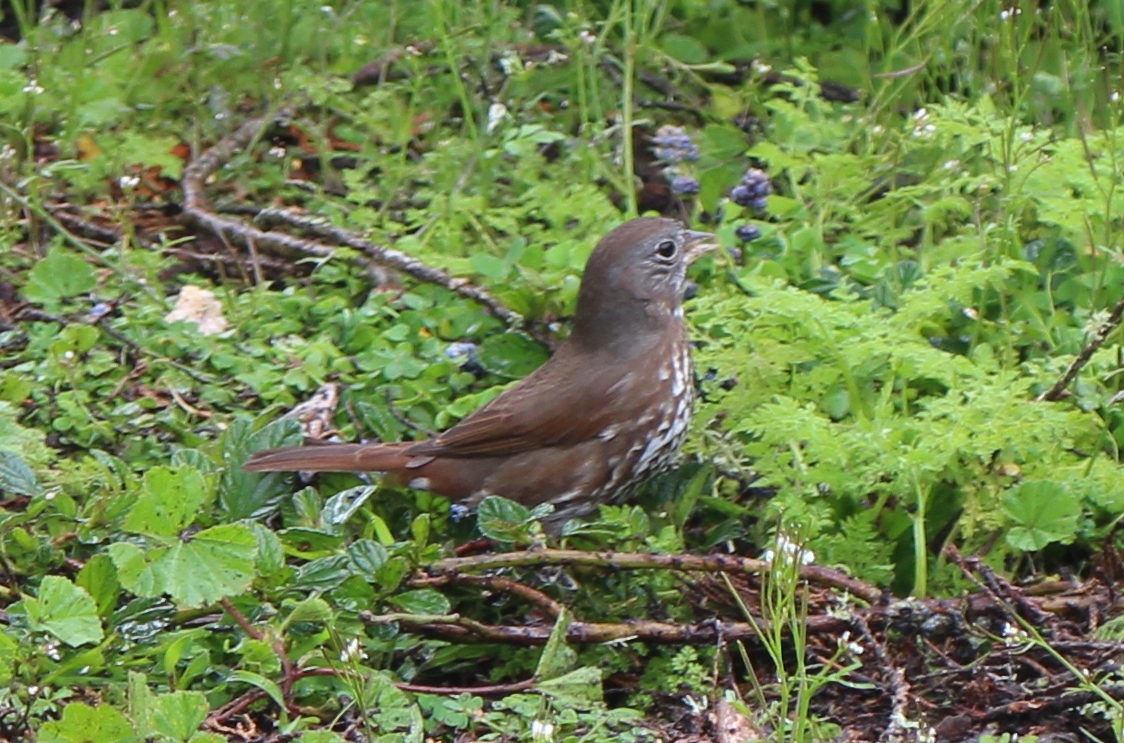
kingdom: Animalia
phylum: Chordata
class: Aves
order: Passeriformes
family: Passerellidae
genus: Passerella
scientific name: Passerella iliaca
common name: Fox sparrow
